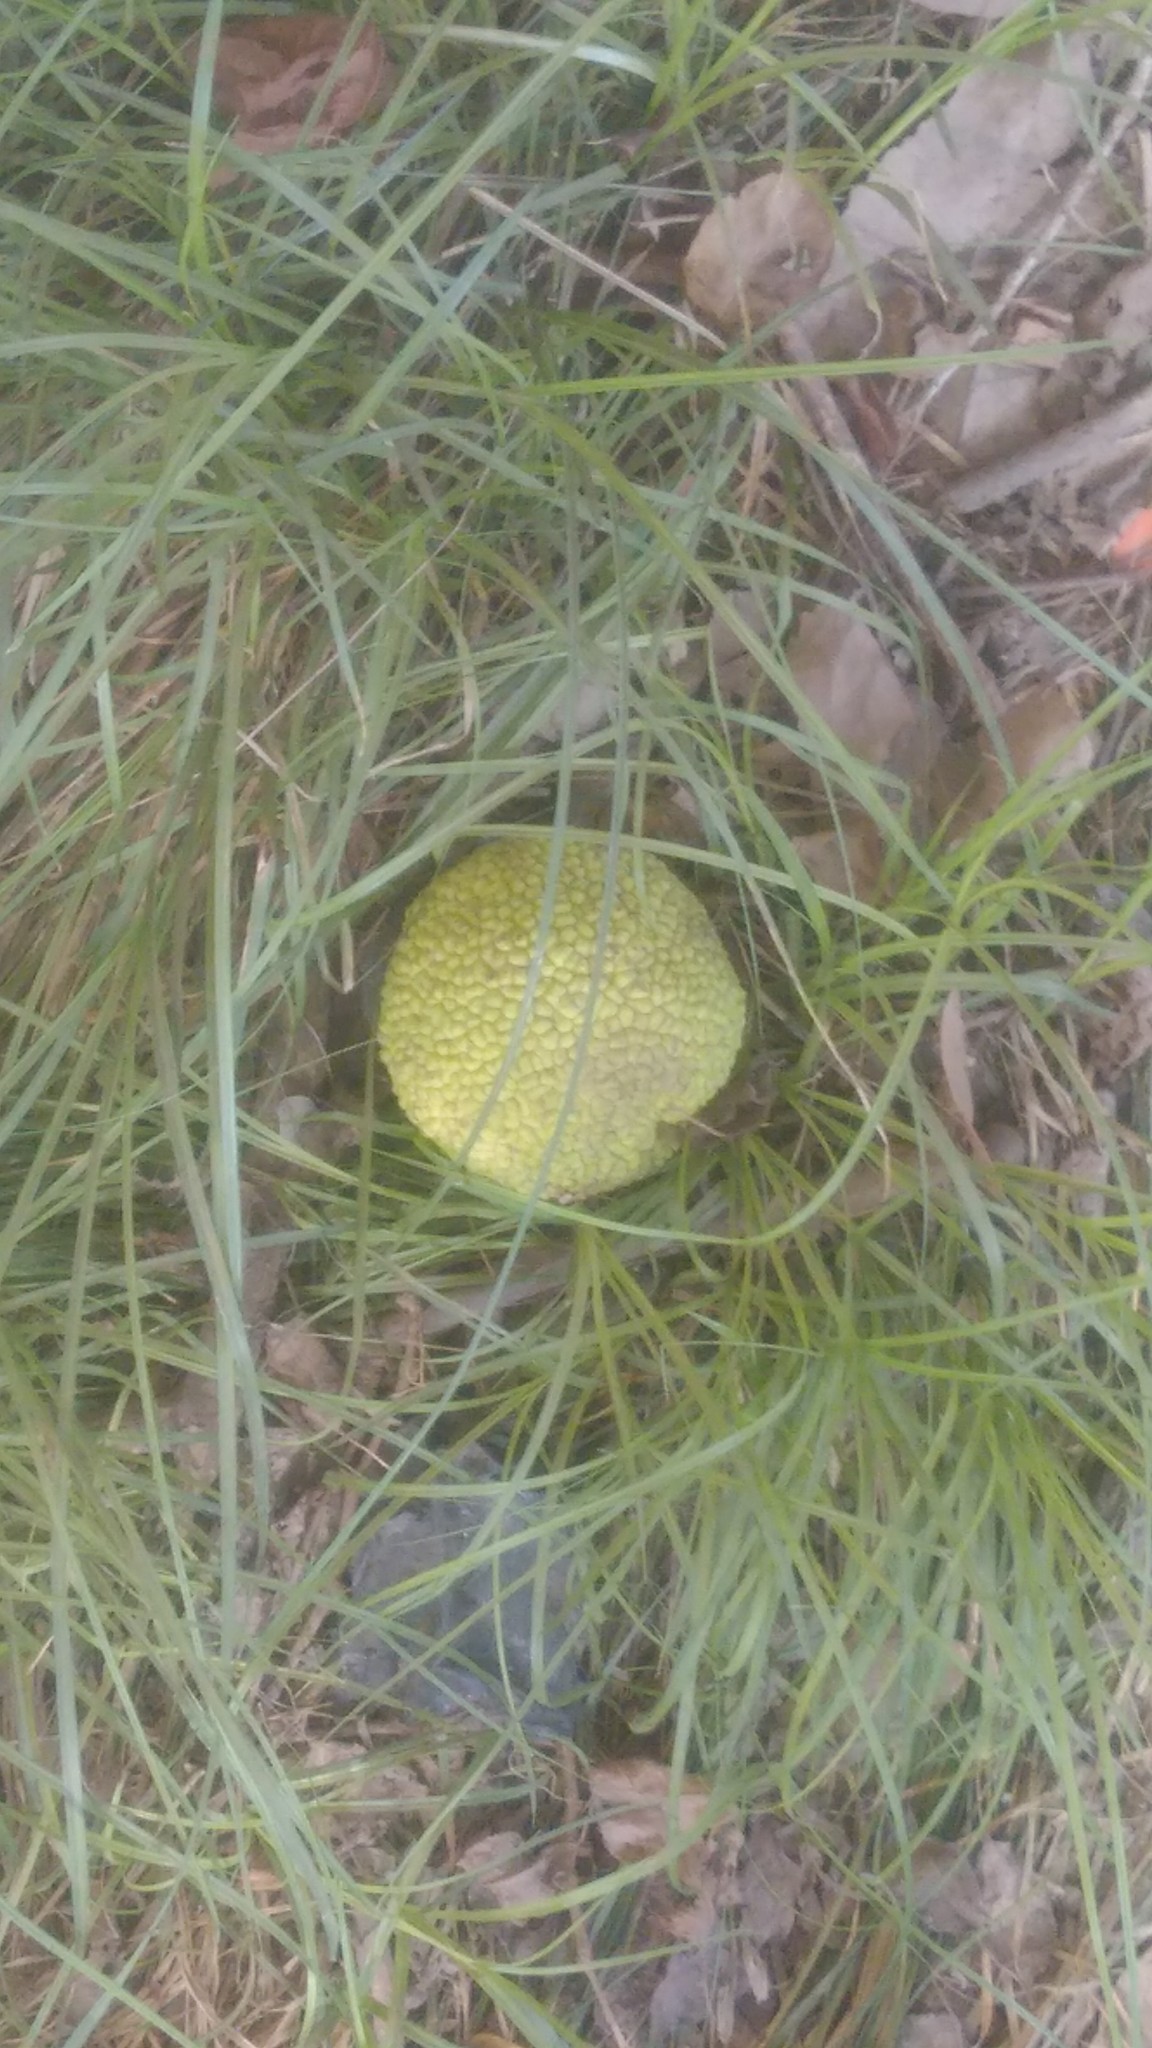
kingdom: Plantae
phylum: Tracheophyta
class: Magnoliopsida
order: Rosales
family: Moraceae
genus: Maclura
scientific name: Maclura pomifera
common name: Osage-orange
